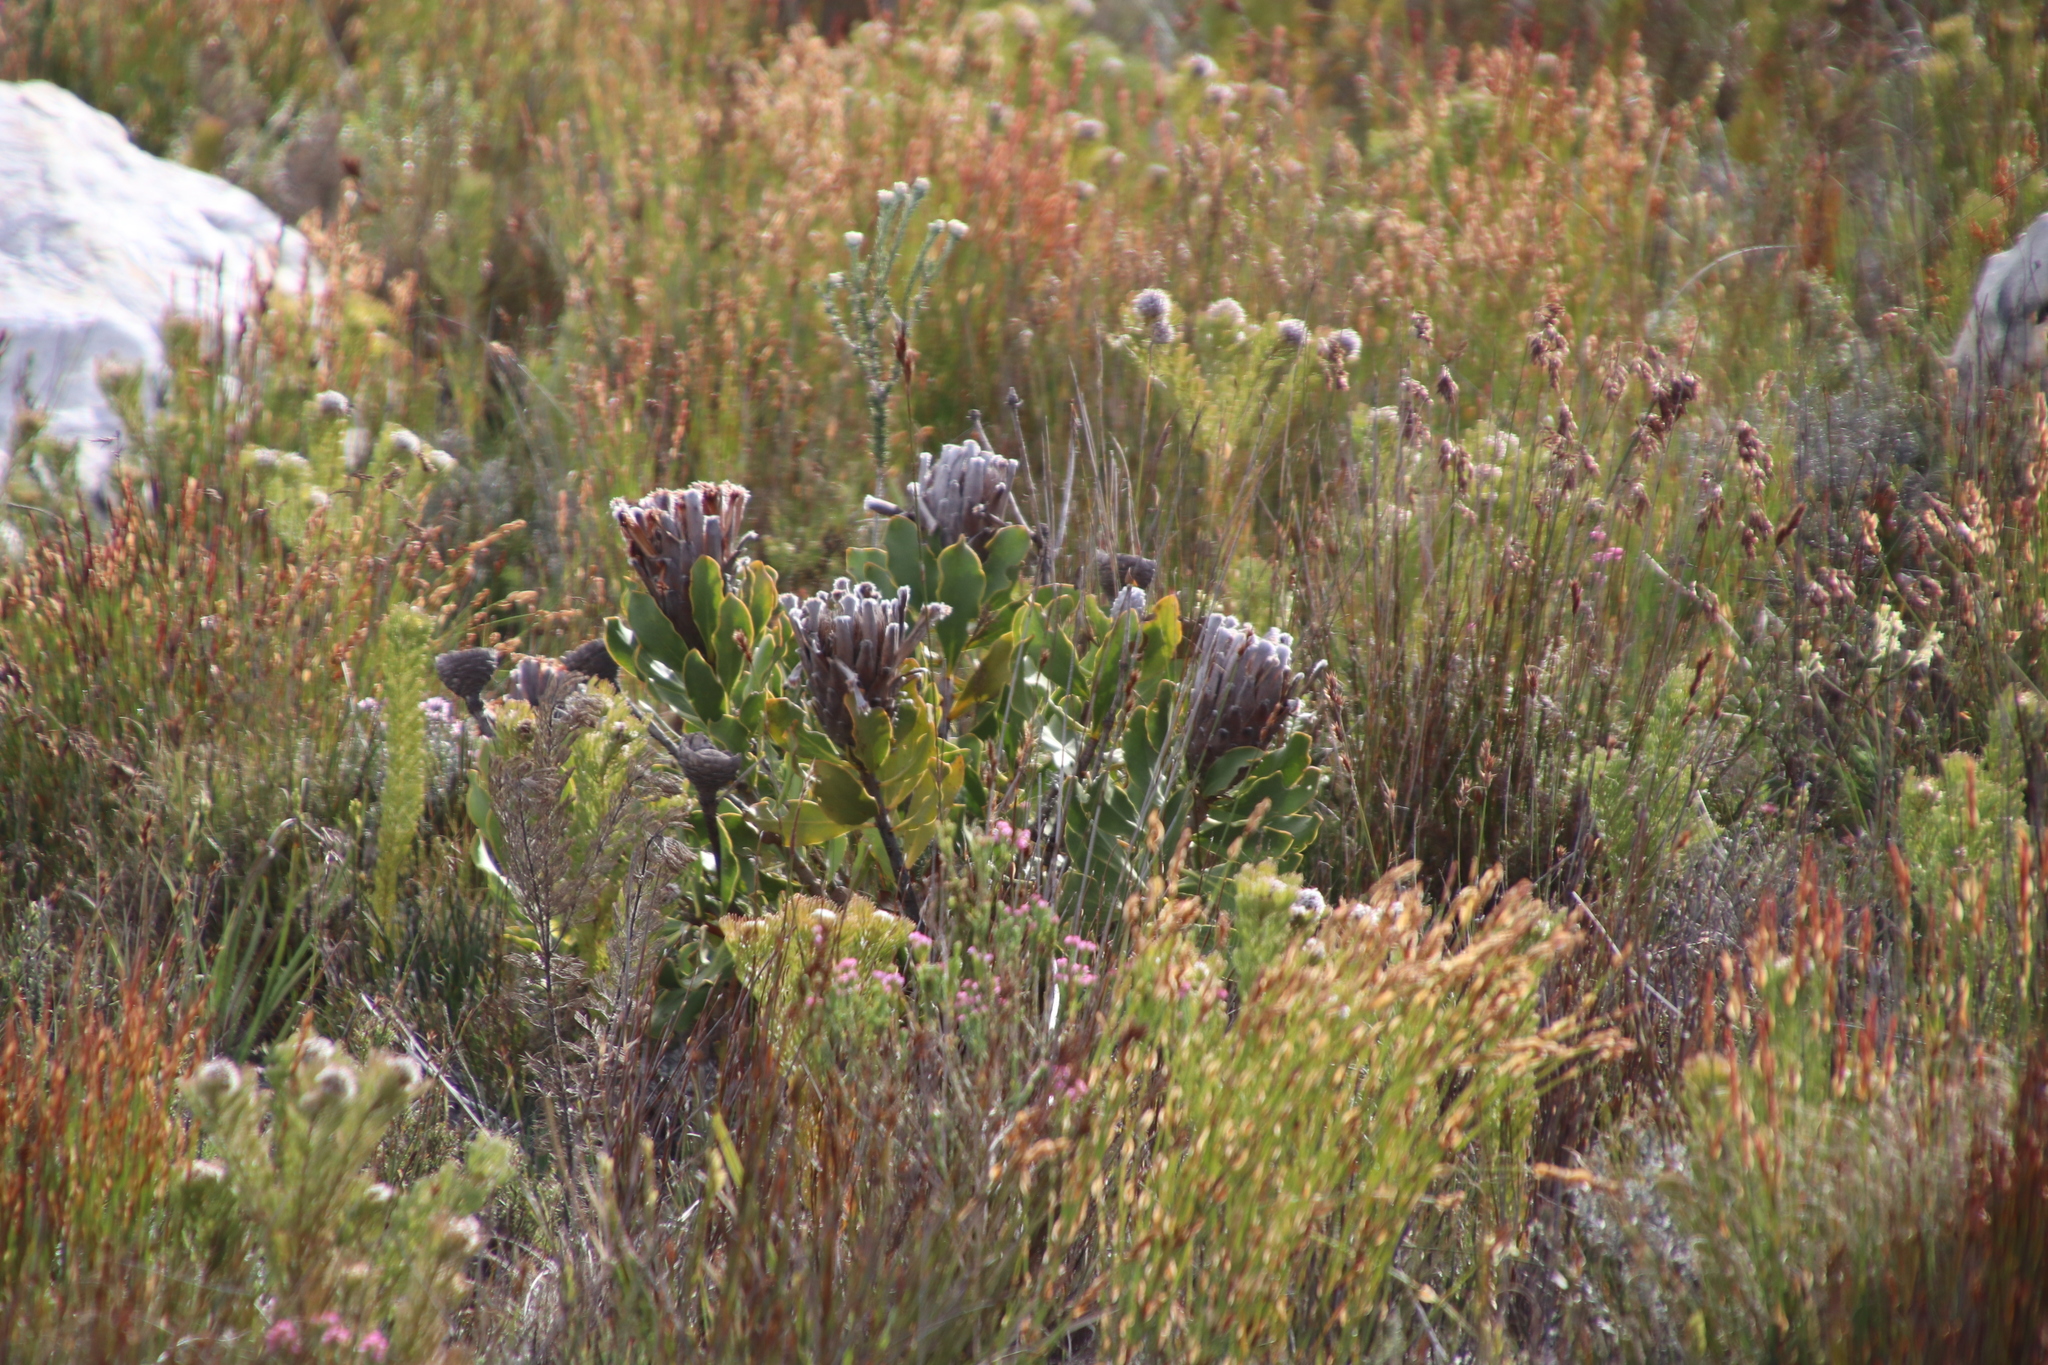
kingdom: Plantae
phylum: Tracheophyta
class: Magnoliopsida
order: Proteales
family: Proteaceae
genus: Protea
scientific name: Protea speciosa
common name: Brown-beard sugarbush
